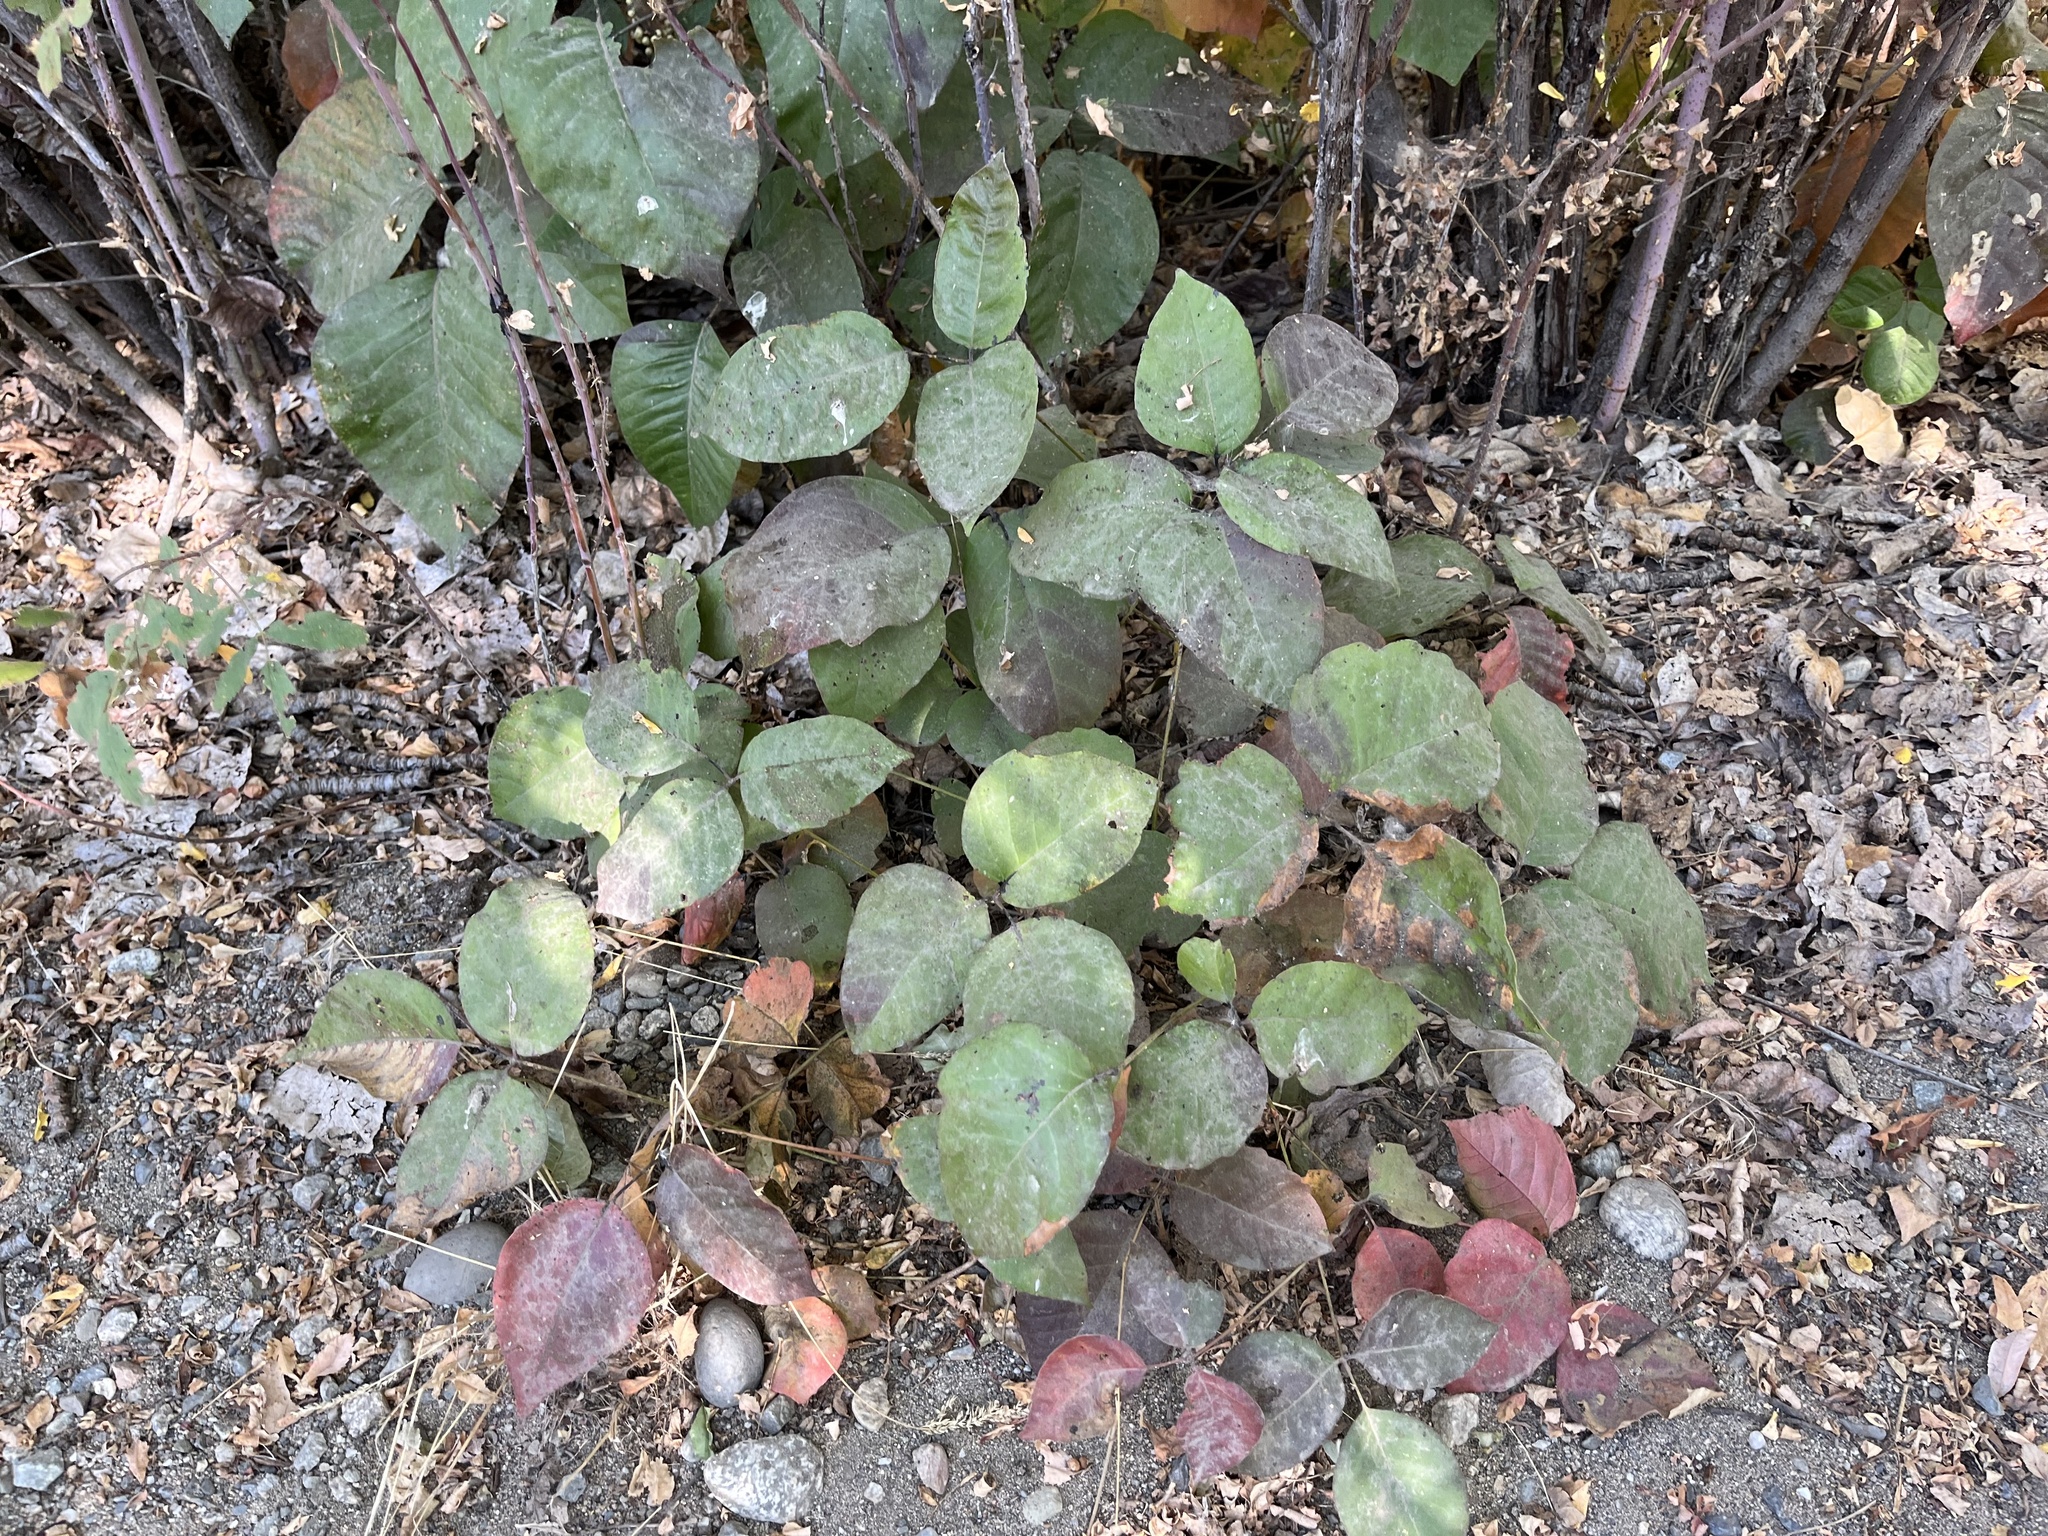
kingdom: Plantae
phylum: Tracheophyta
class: Magnoliopsida
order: Sapindales
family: Anacardiaceae
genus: Toxicodendron
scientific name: Toxicodendron rydbergii
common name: Rydberg's poison-ivy
